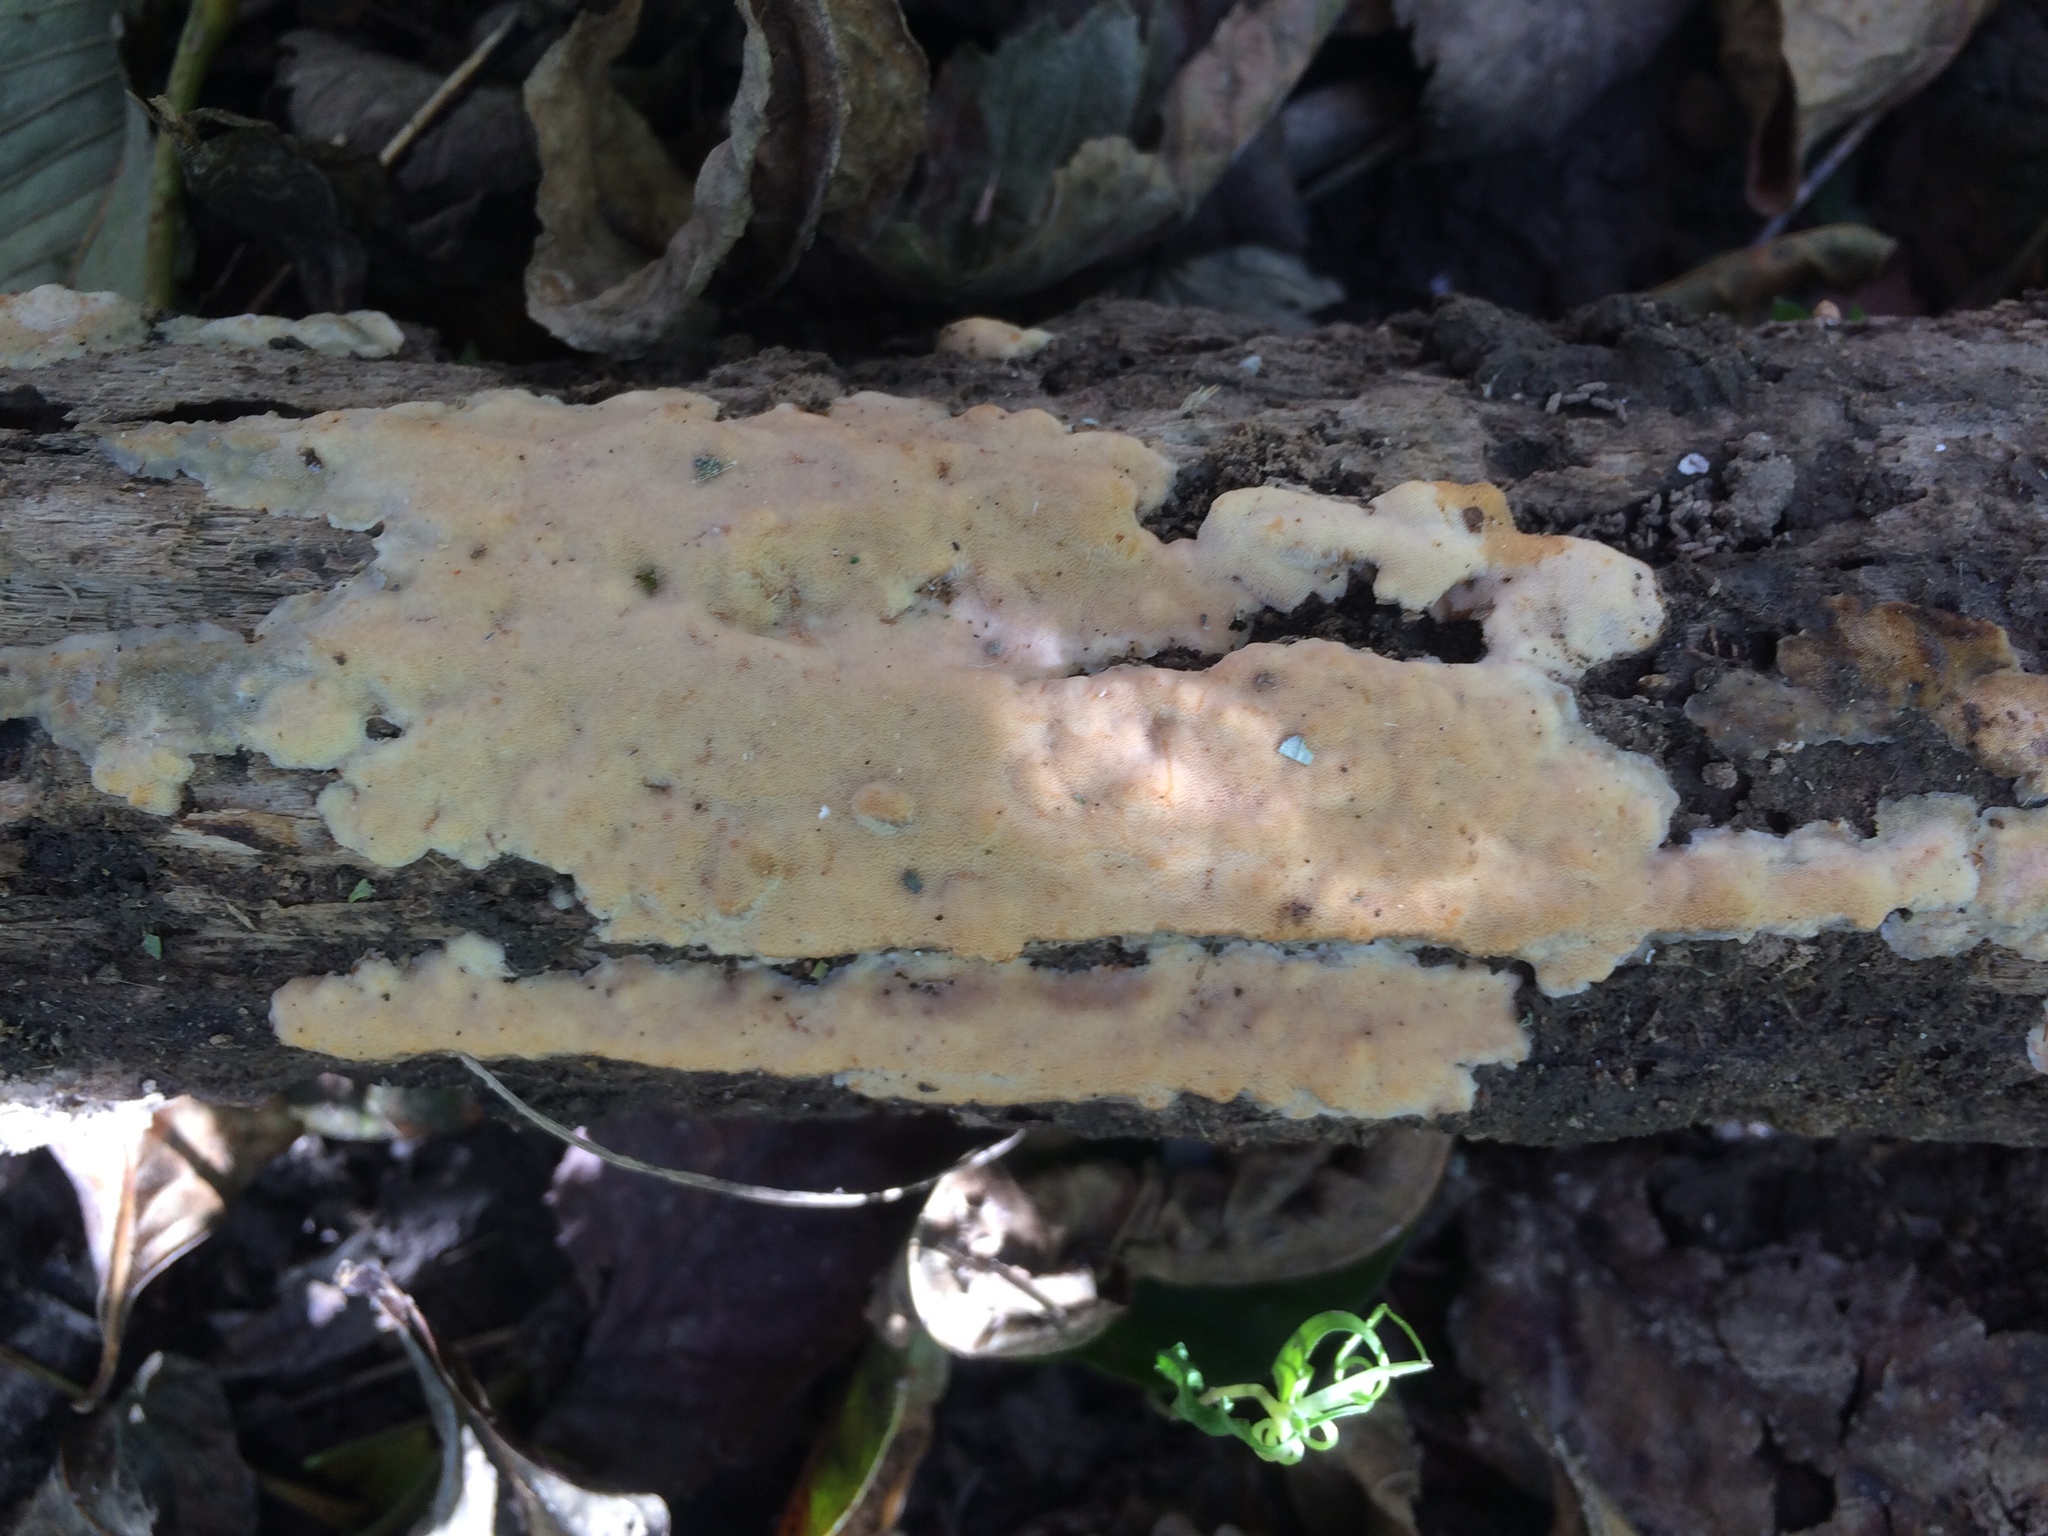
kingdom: Fungi
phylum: Basidiomycota
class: Agaricomycetes
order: Polyporales
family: Meripilaceae
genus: Rigidoporus
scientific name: Rigidoporus pouzarii
